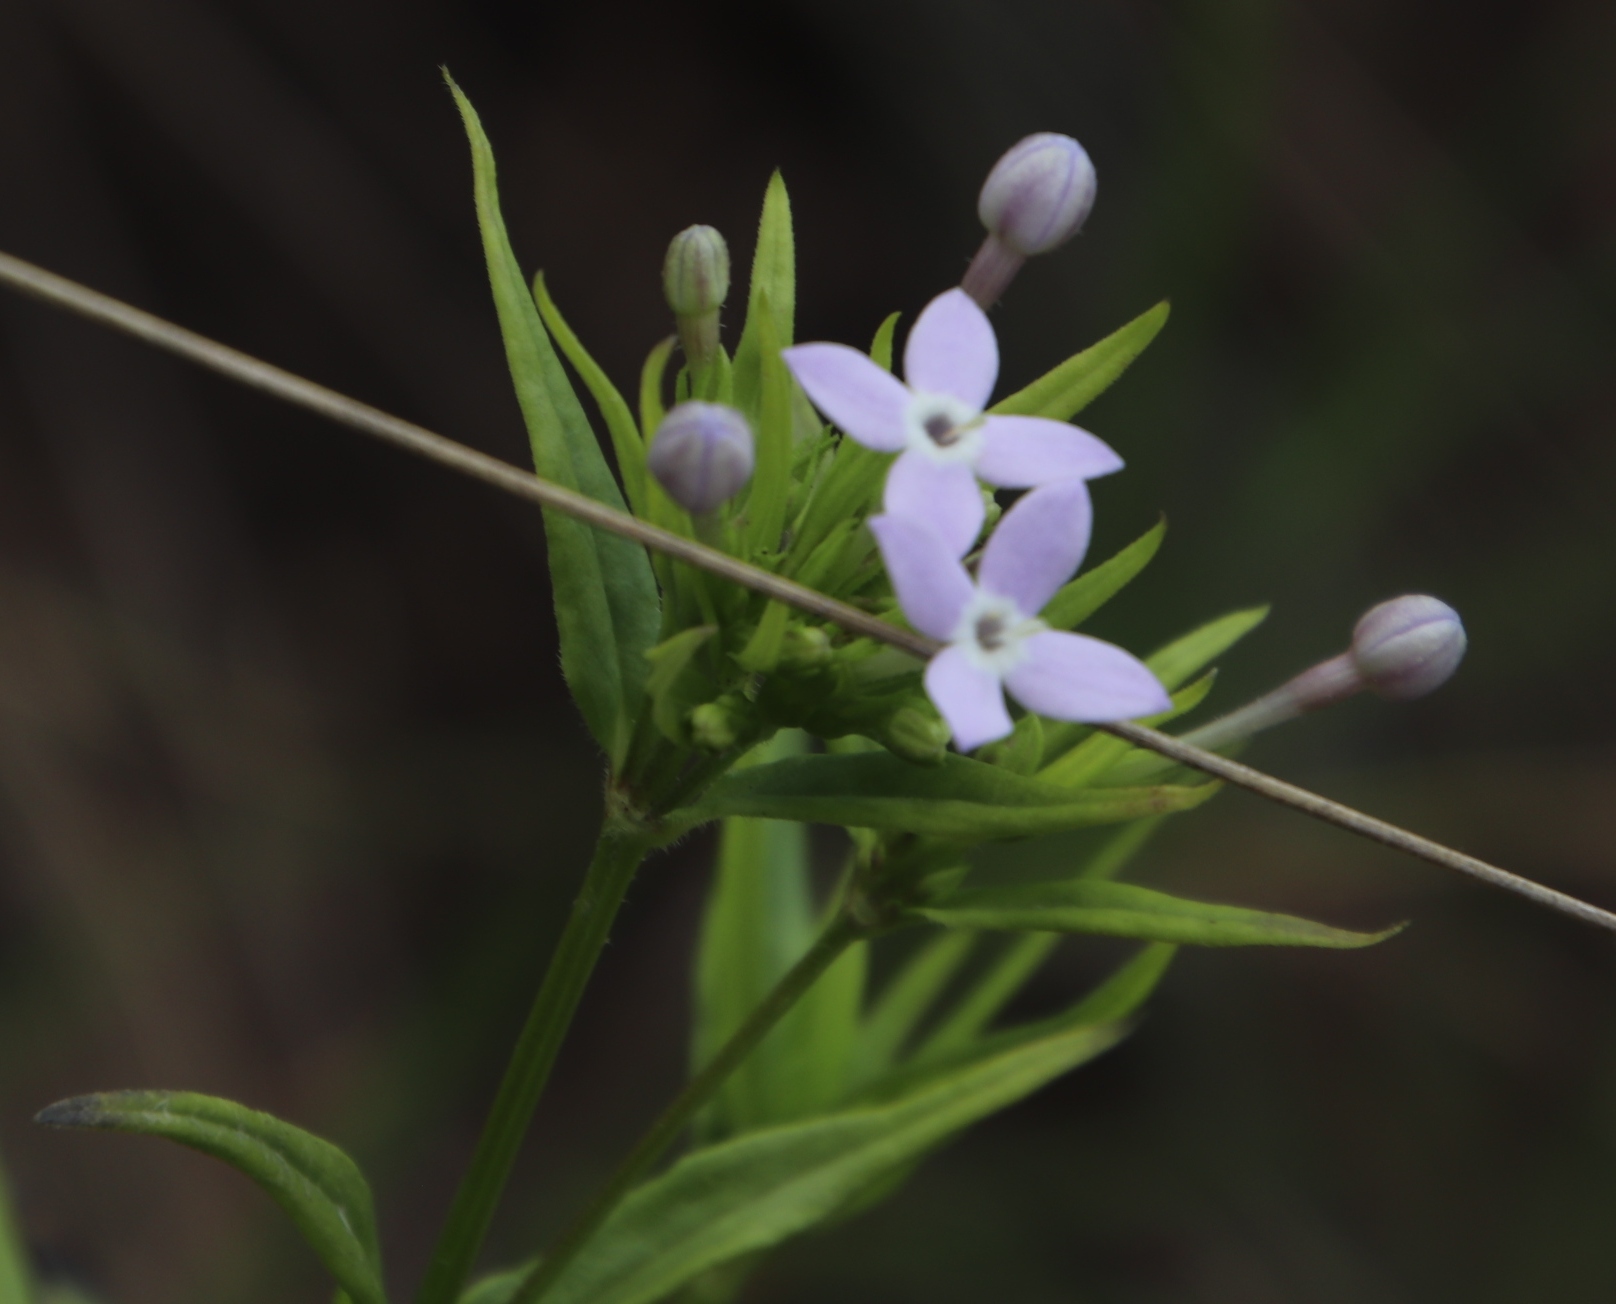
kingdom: Plantae
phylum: Tracheophyta
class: Magnoliopsida
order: Gentianales
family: Rubiaceae
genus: Conostomium
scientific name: Conostomium natalense
